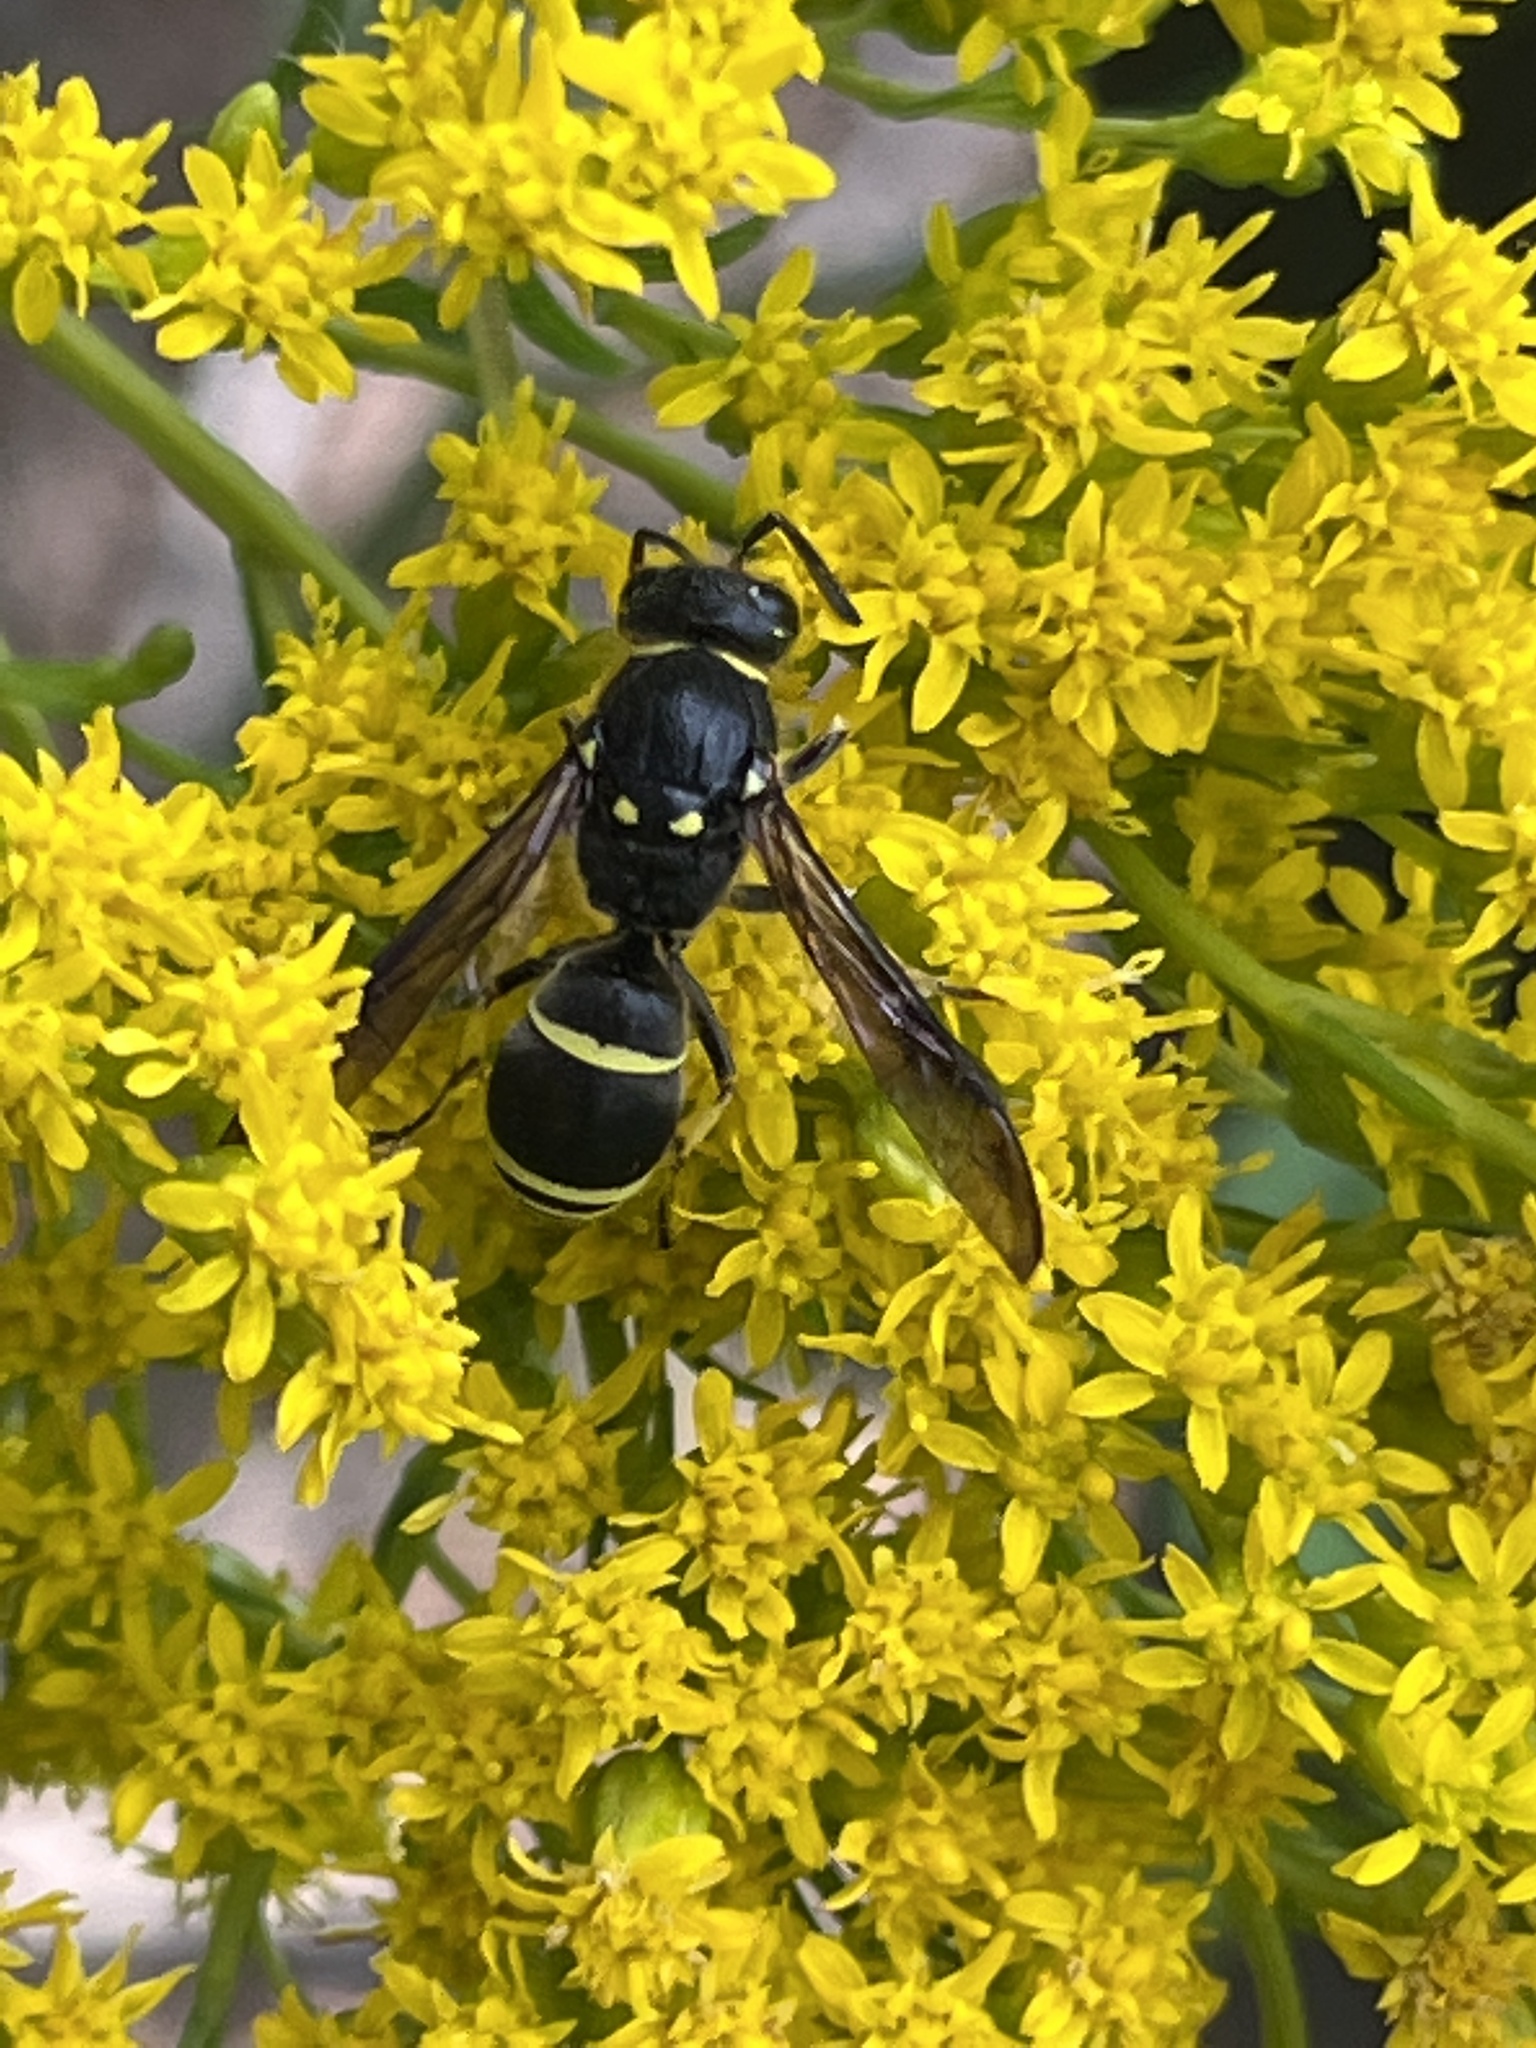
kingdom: Animalia
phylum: Arthropoda
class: Insecta
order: Hymenoptera
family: Vespidae
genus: Ancistrocerus
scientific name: Ancistrocerus
